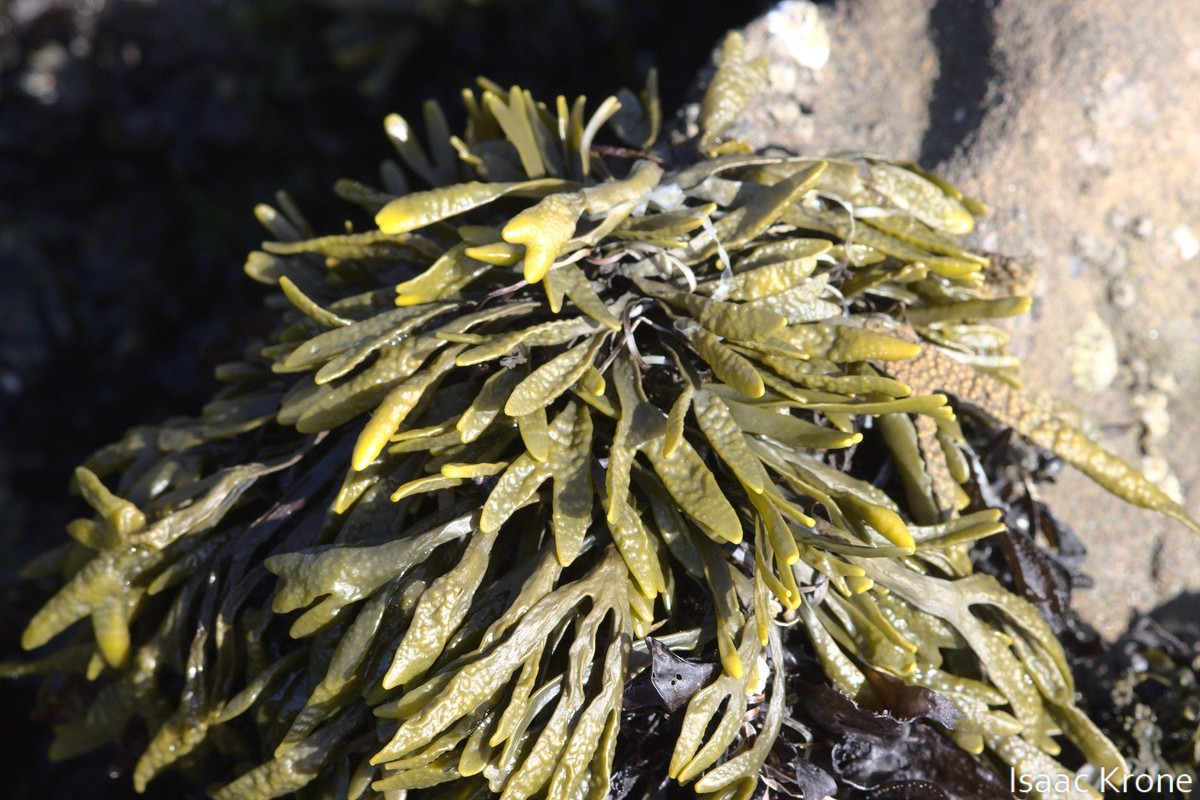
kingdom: Chromista
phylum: Ochrophyta
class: Phaeophyceae
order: Fucales
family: Fucaceae
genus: Pelvetiopsis
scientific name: Pelvetiopsis limitata
